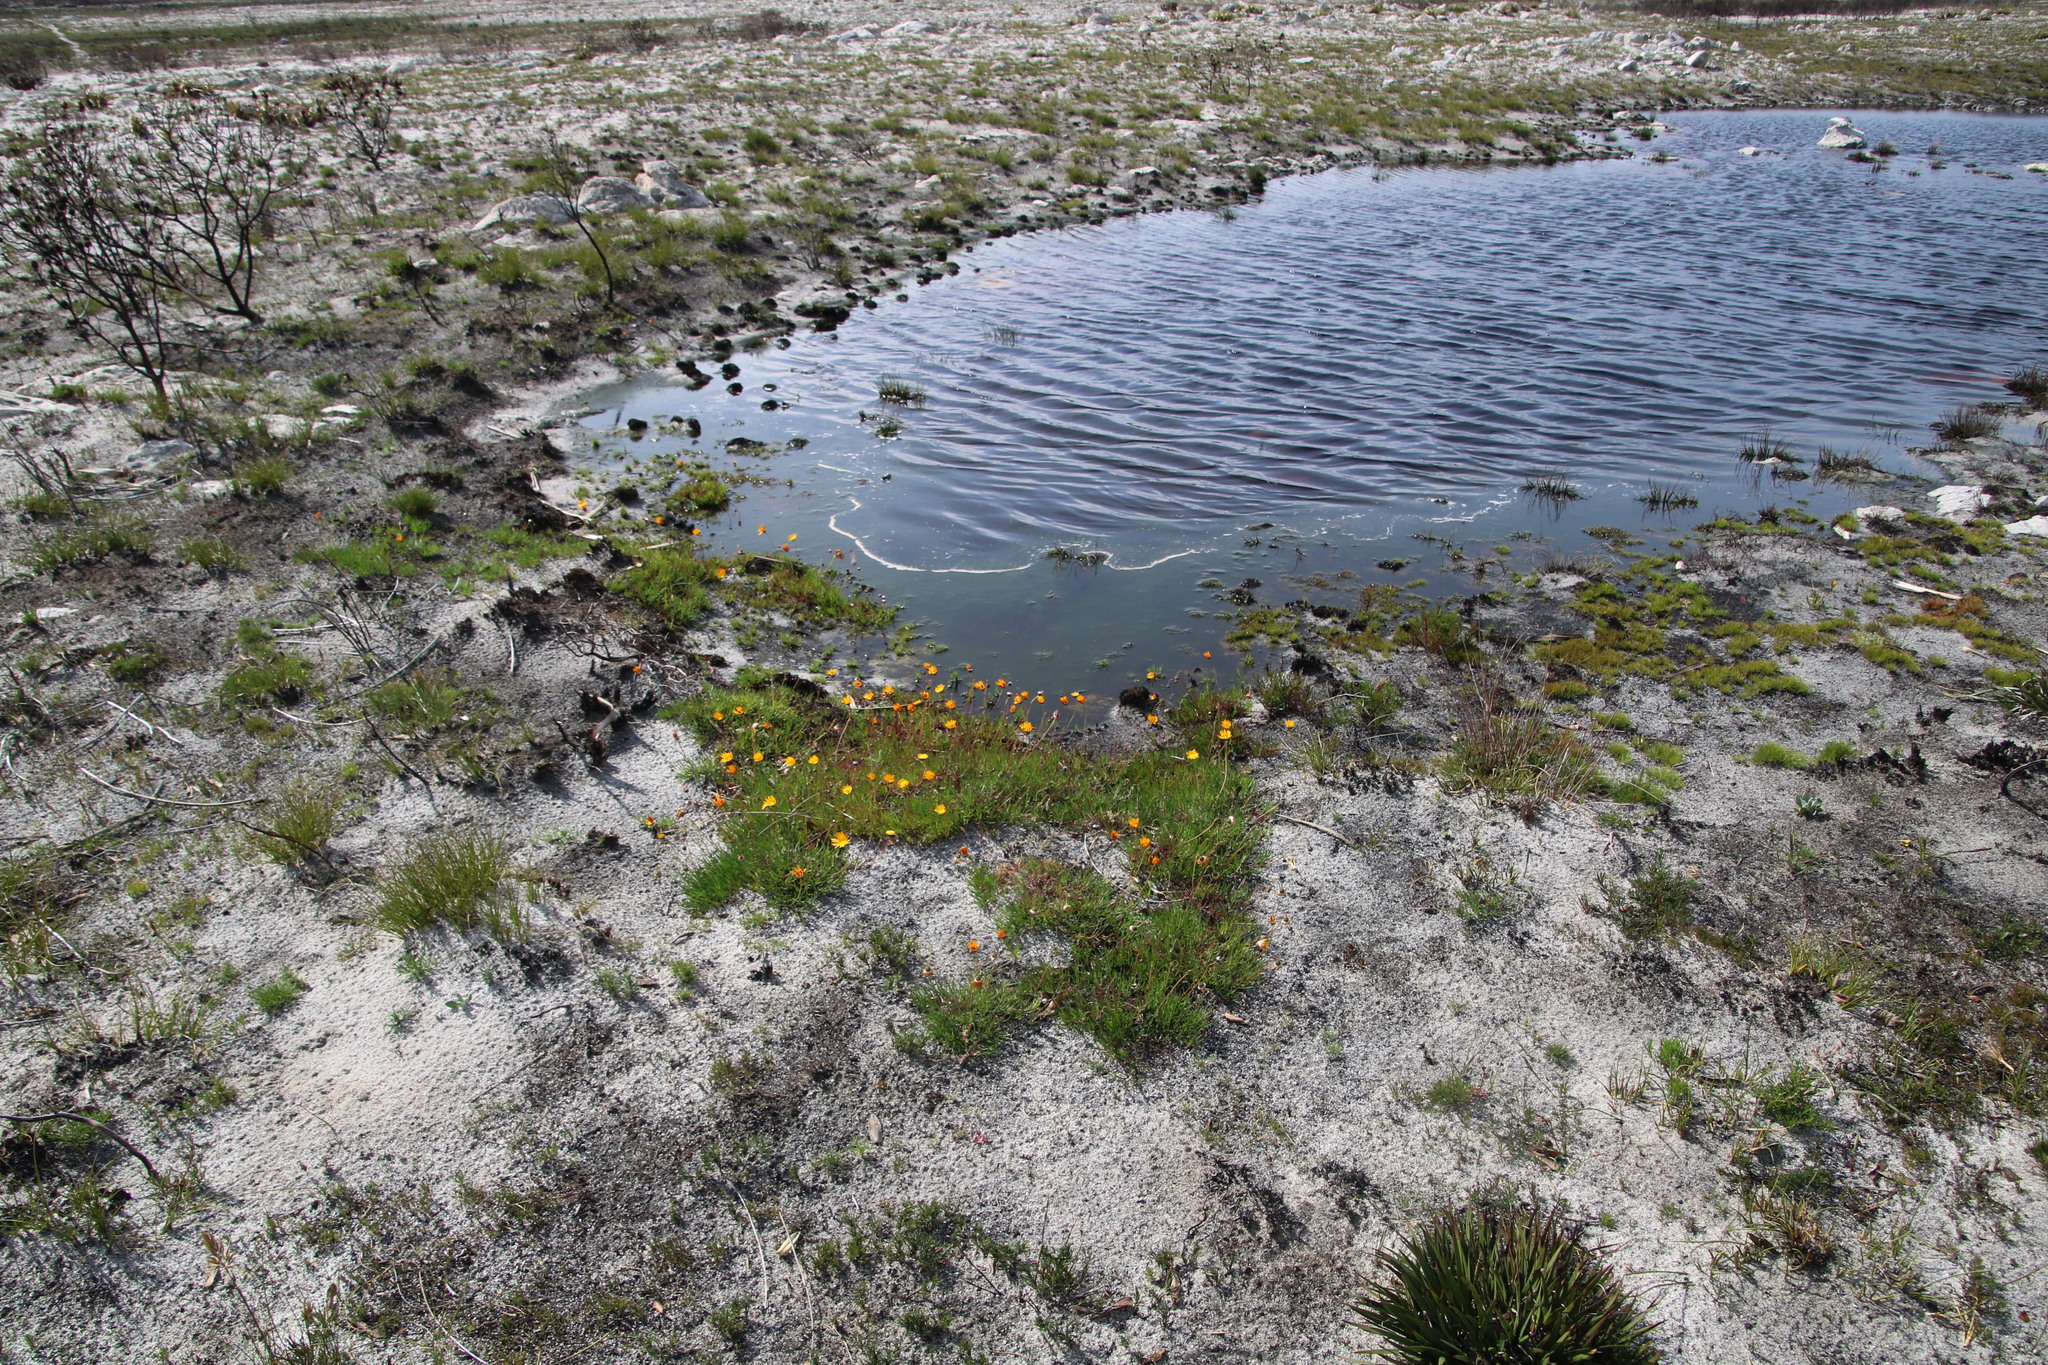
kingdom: Plantae
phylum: Tracheophyta
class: Magnoliopsida
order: Asterales
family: Asteraceae
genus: Ursinia
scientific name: Ursinia tenuifolia
